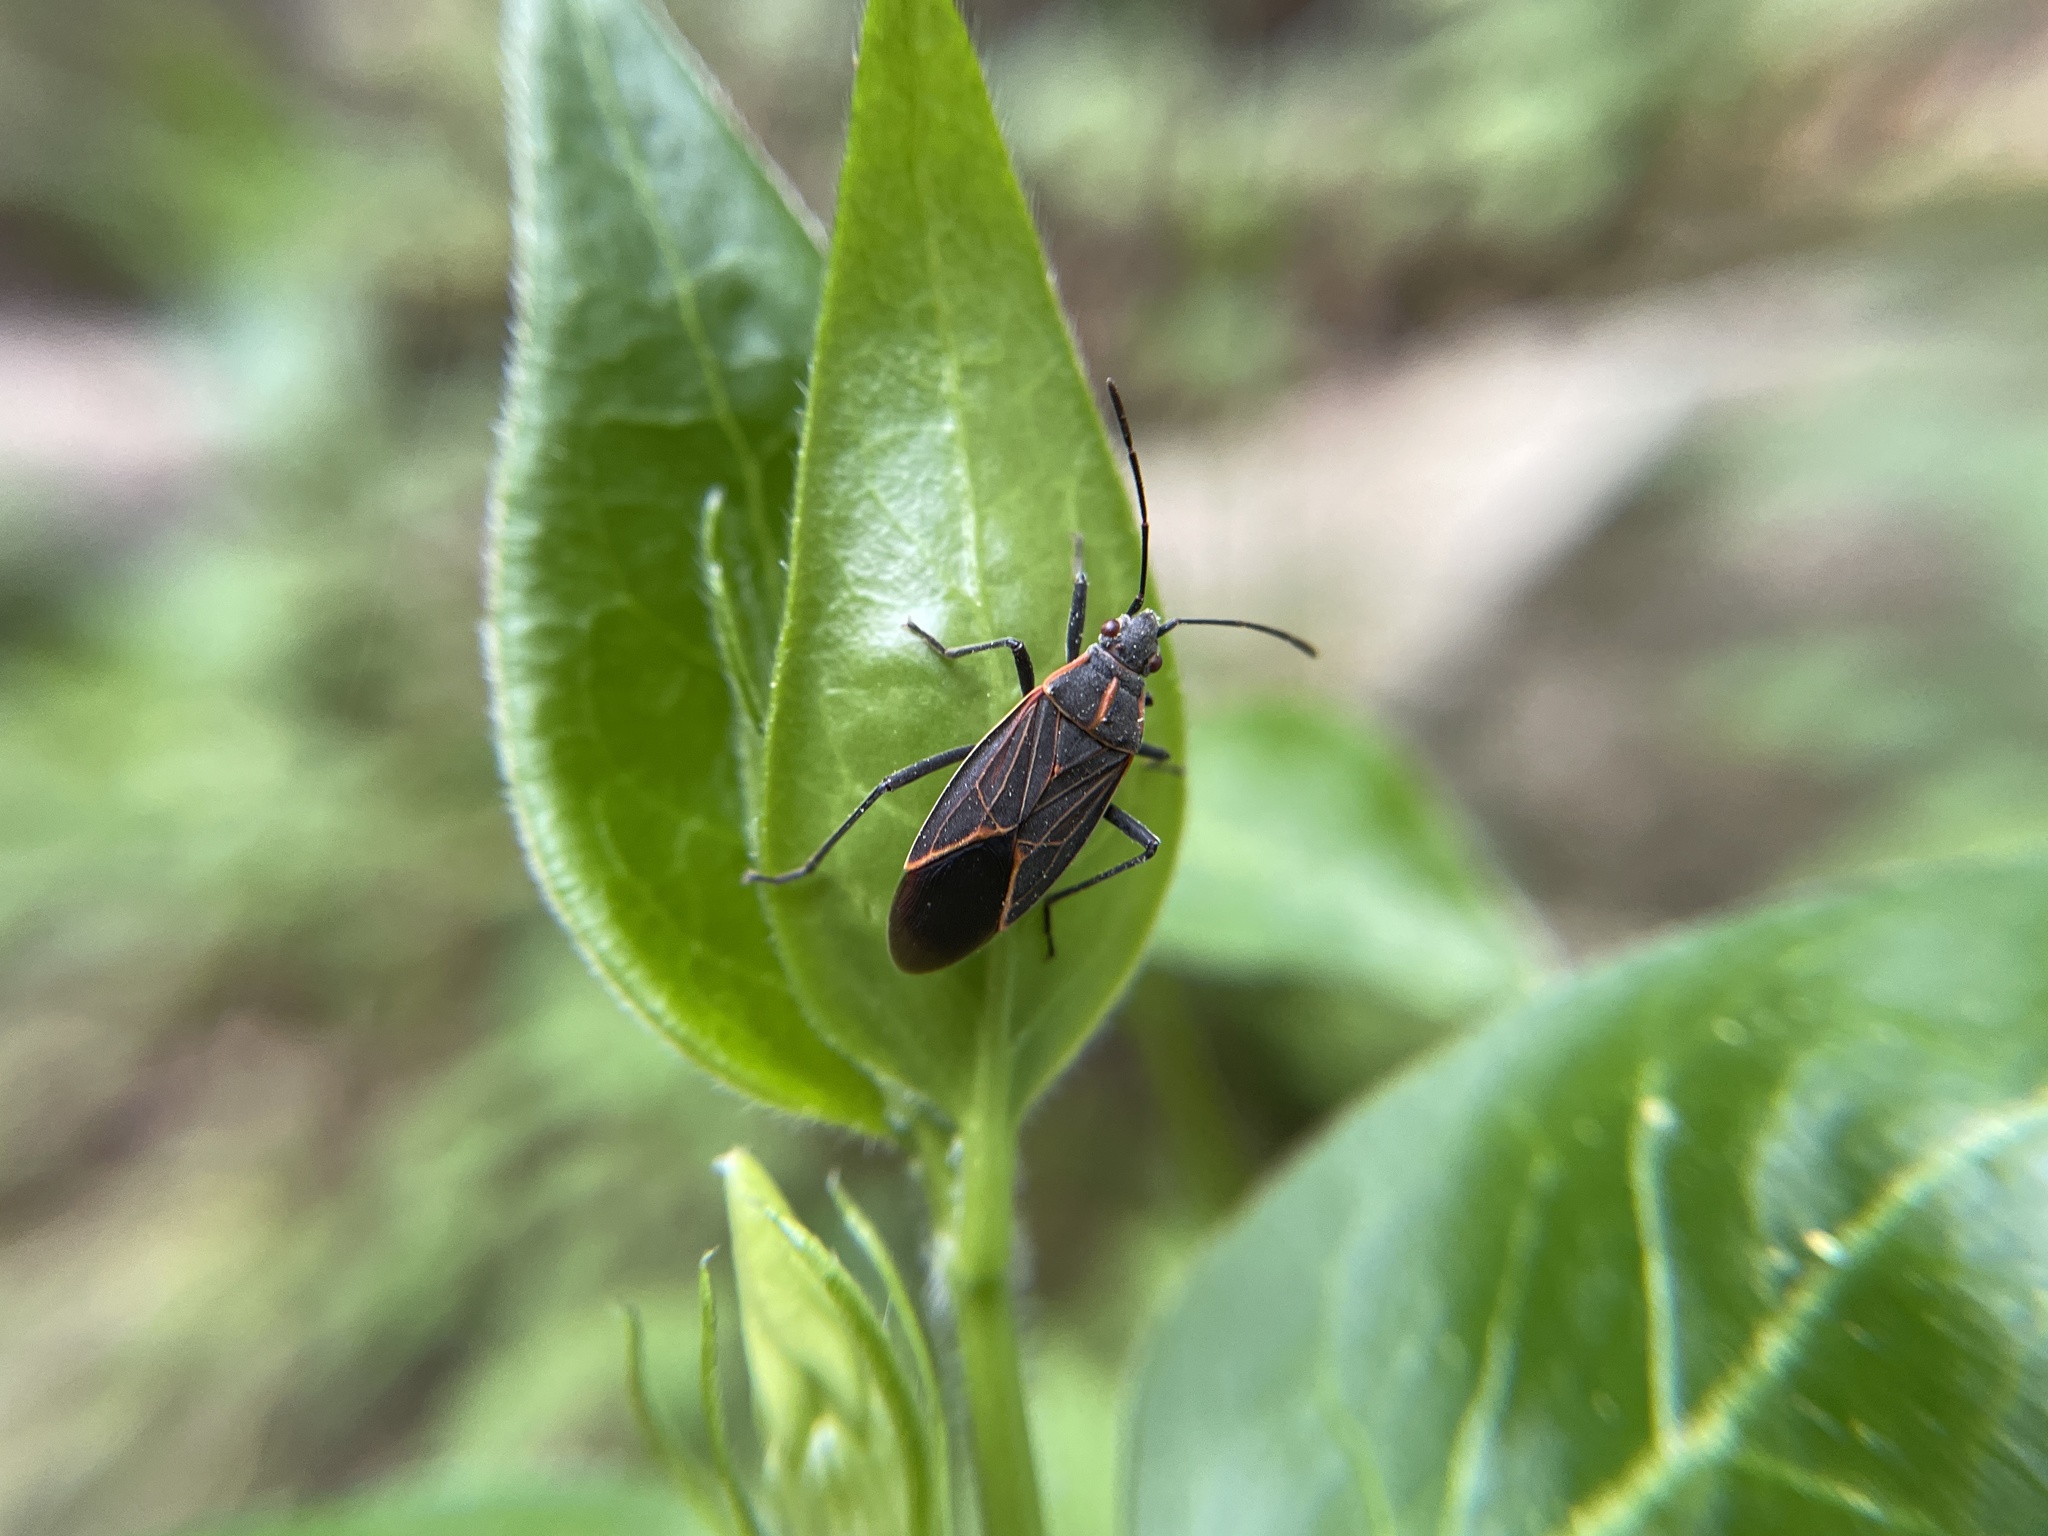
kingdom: Animalia
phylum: Arthropoda
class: Insecta
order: Hemiptera
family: Rhopalidae
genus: Boisea
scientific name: Boisea rubrolineata
